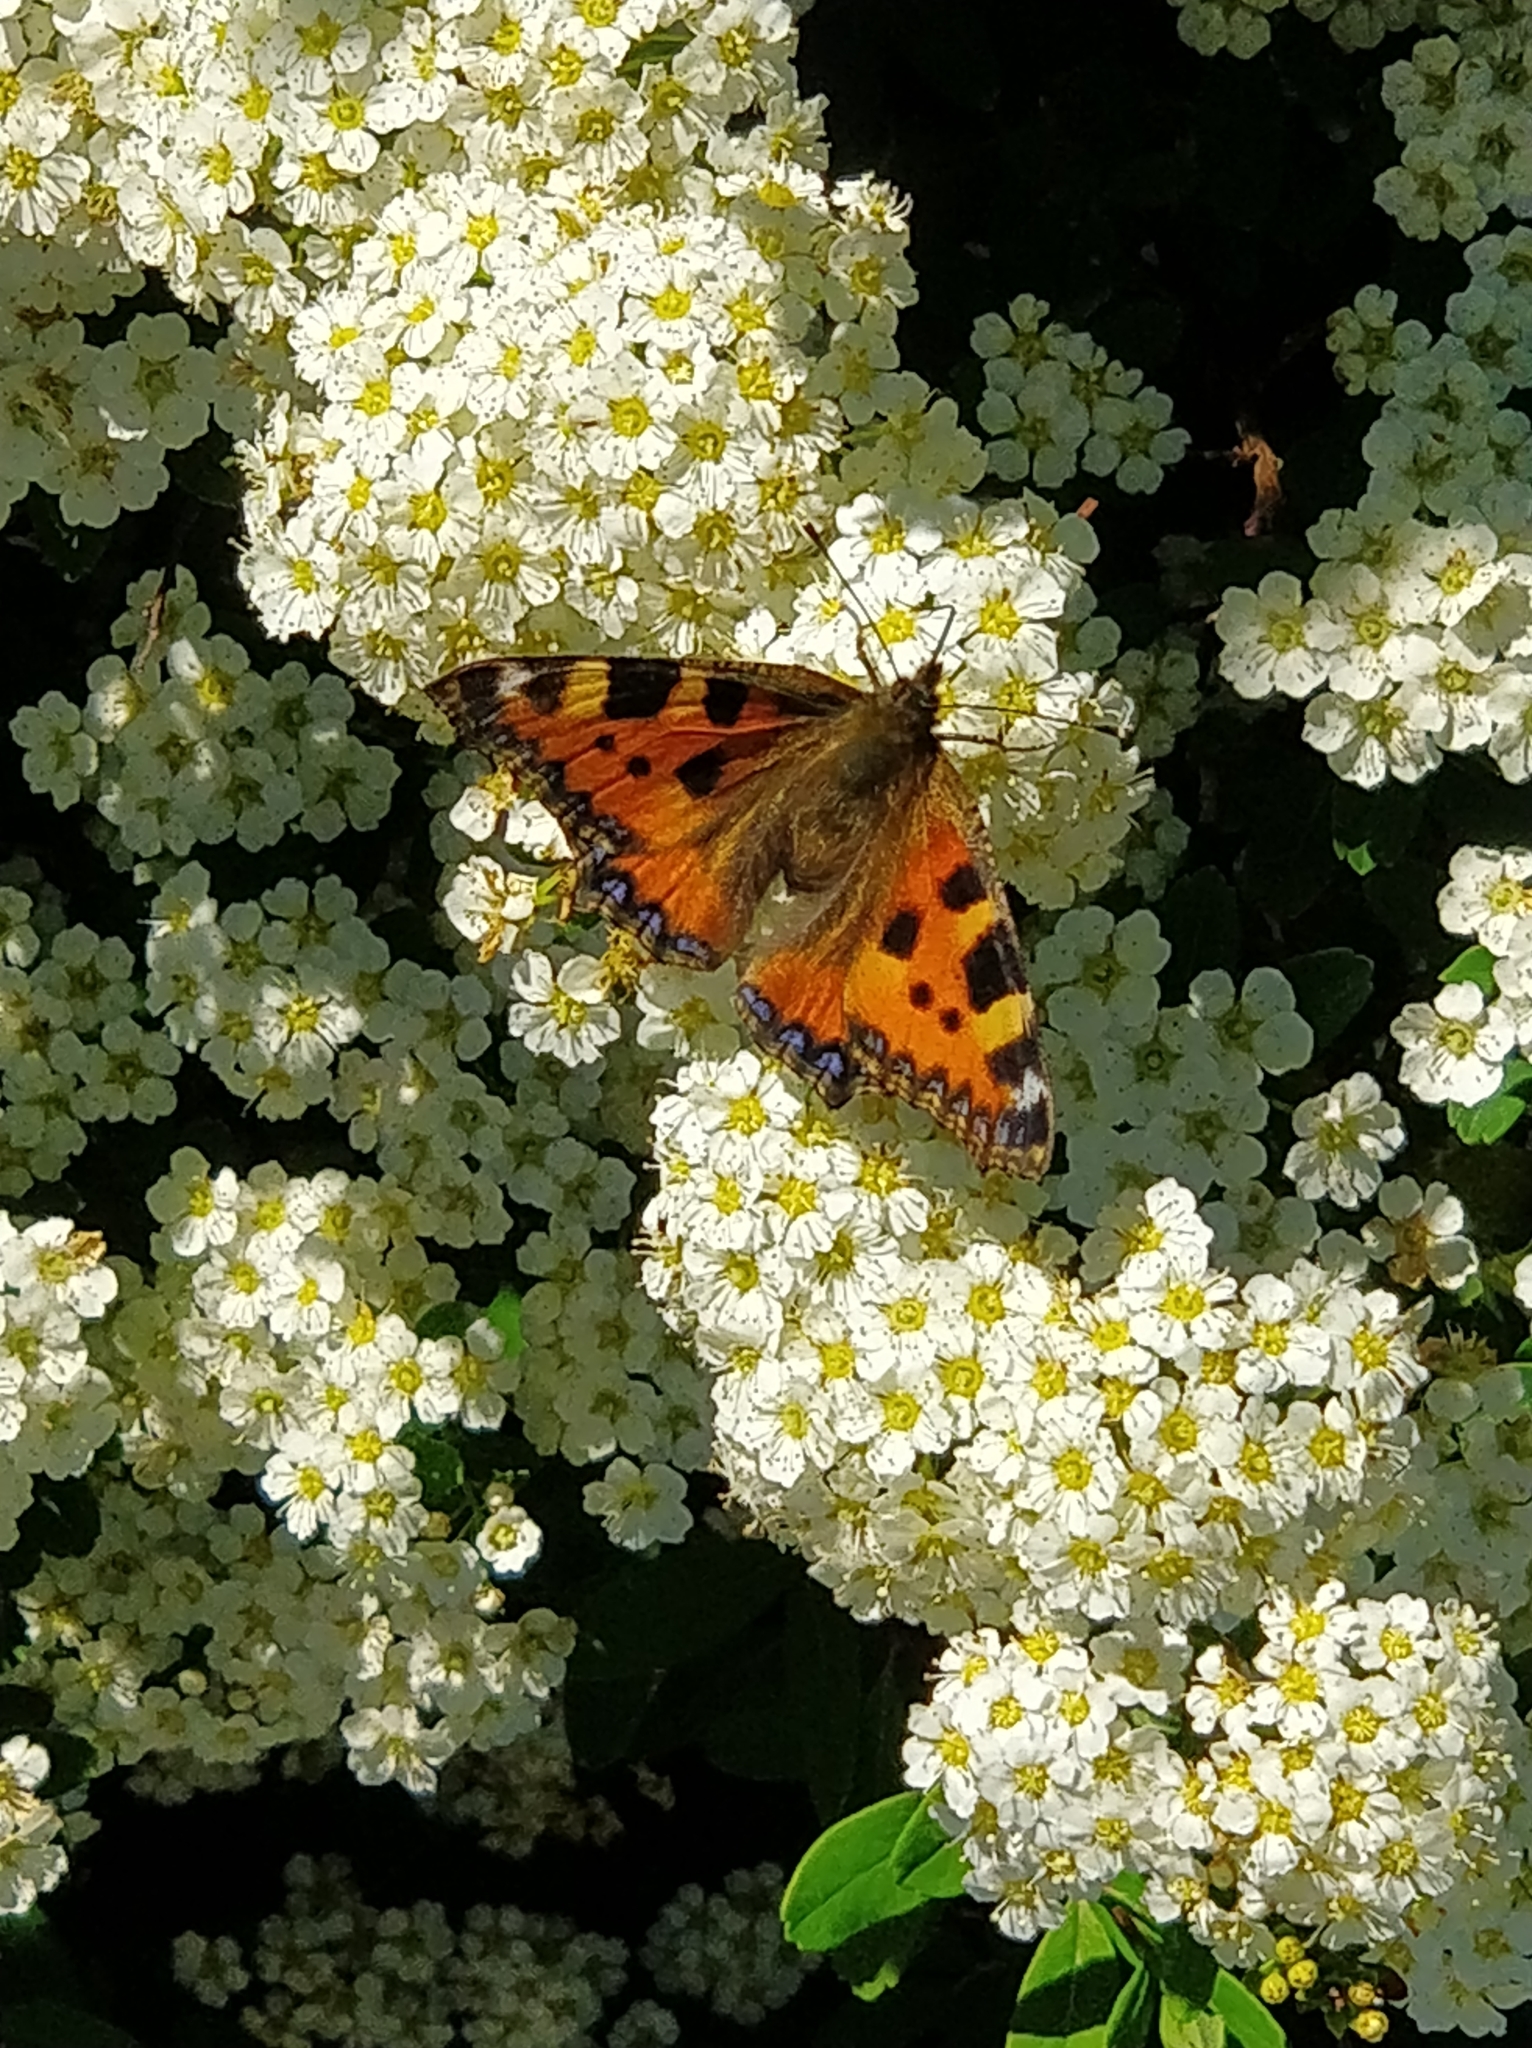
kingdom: Animalia
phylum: Arthropoda
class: Insecta
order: Lepidoptera
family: Nymphalidae
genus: Aglais
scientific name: Aglais urticae
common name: Small tortoiseshell
